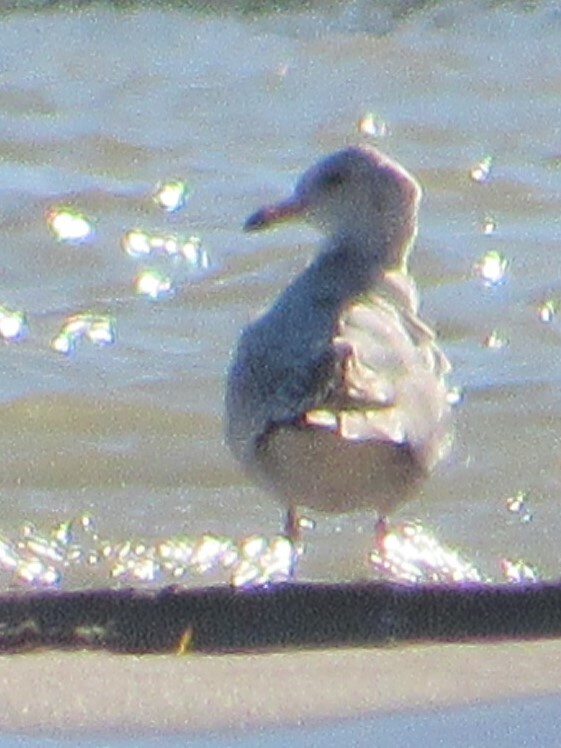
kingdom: Animalia
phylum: Chordata
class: Aves
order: Charadriiformes
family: Laridae
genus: Larus
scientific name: Larus delawarensis
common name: Ring-billed gull
